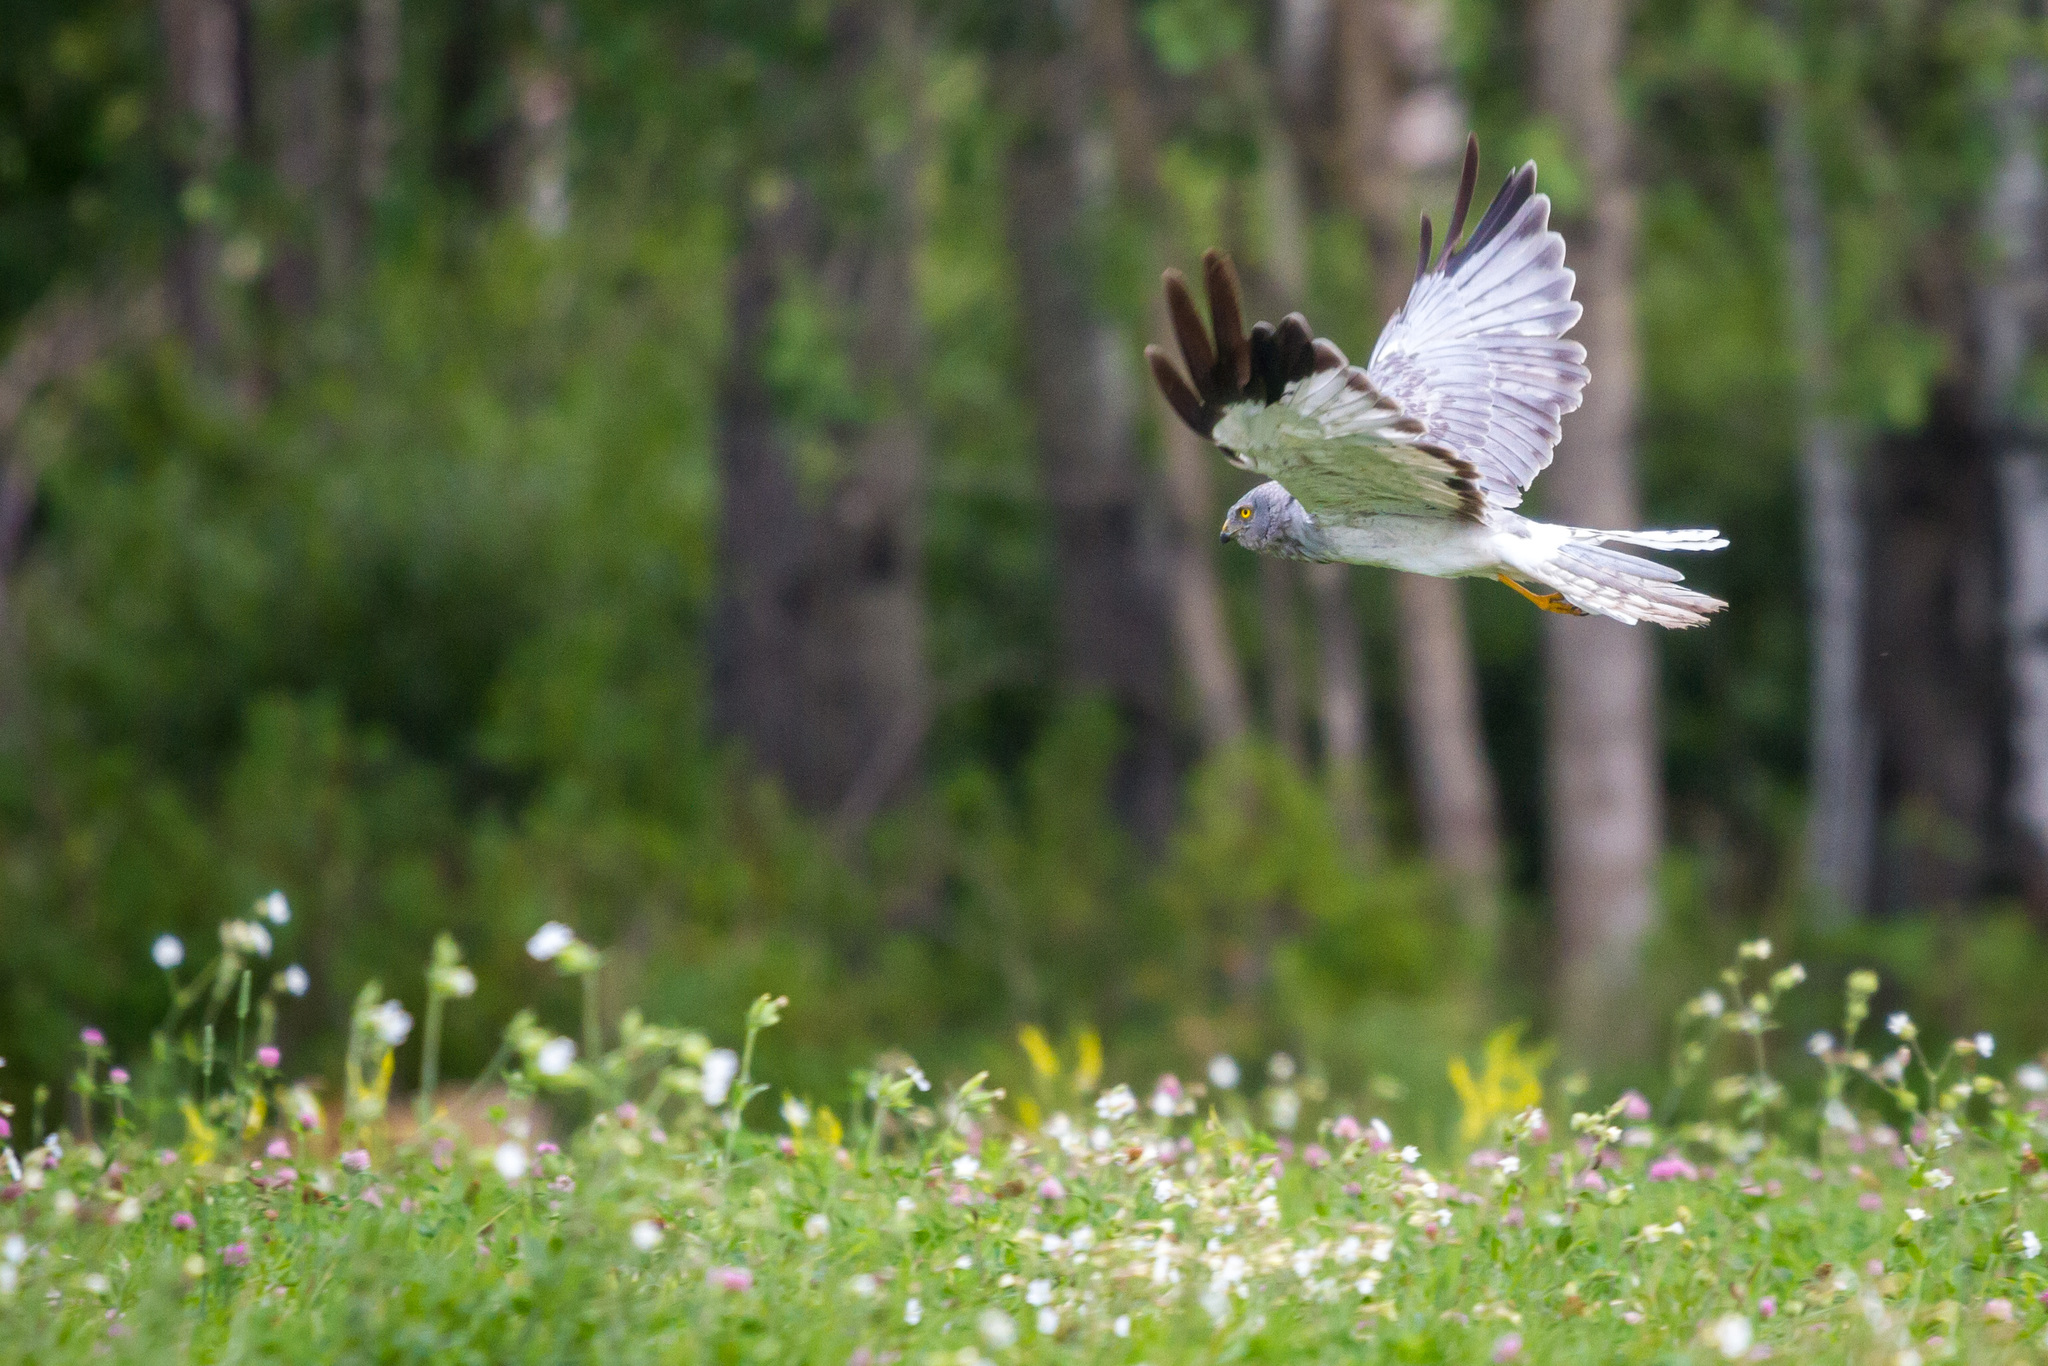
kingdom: Animalia
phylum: Chordata
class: Aves
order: Accipitriformes
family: Accipitridae
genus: Circus
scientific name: Circus cyaneus
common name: Hen harrier
